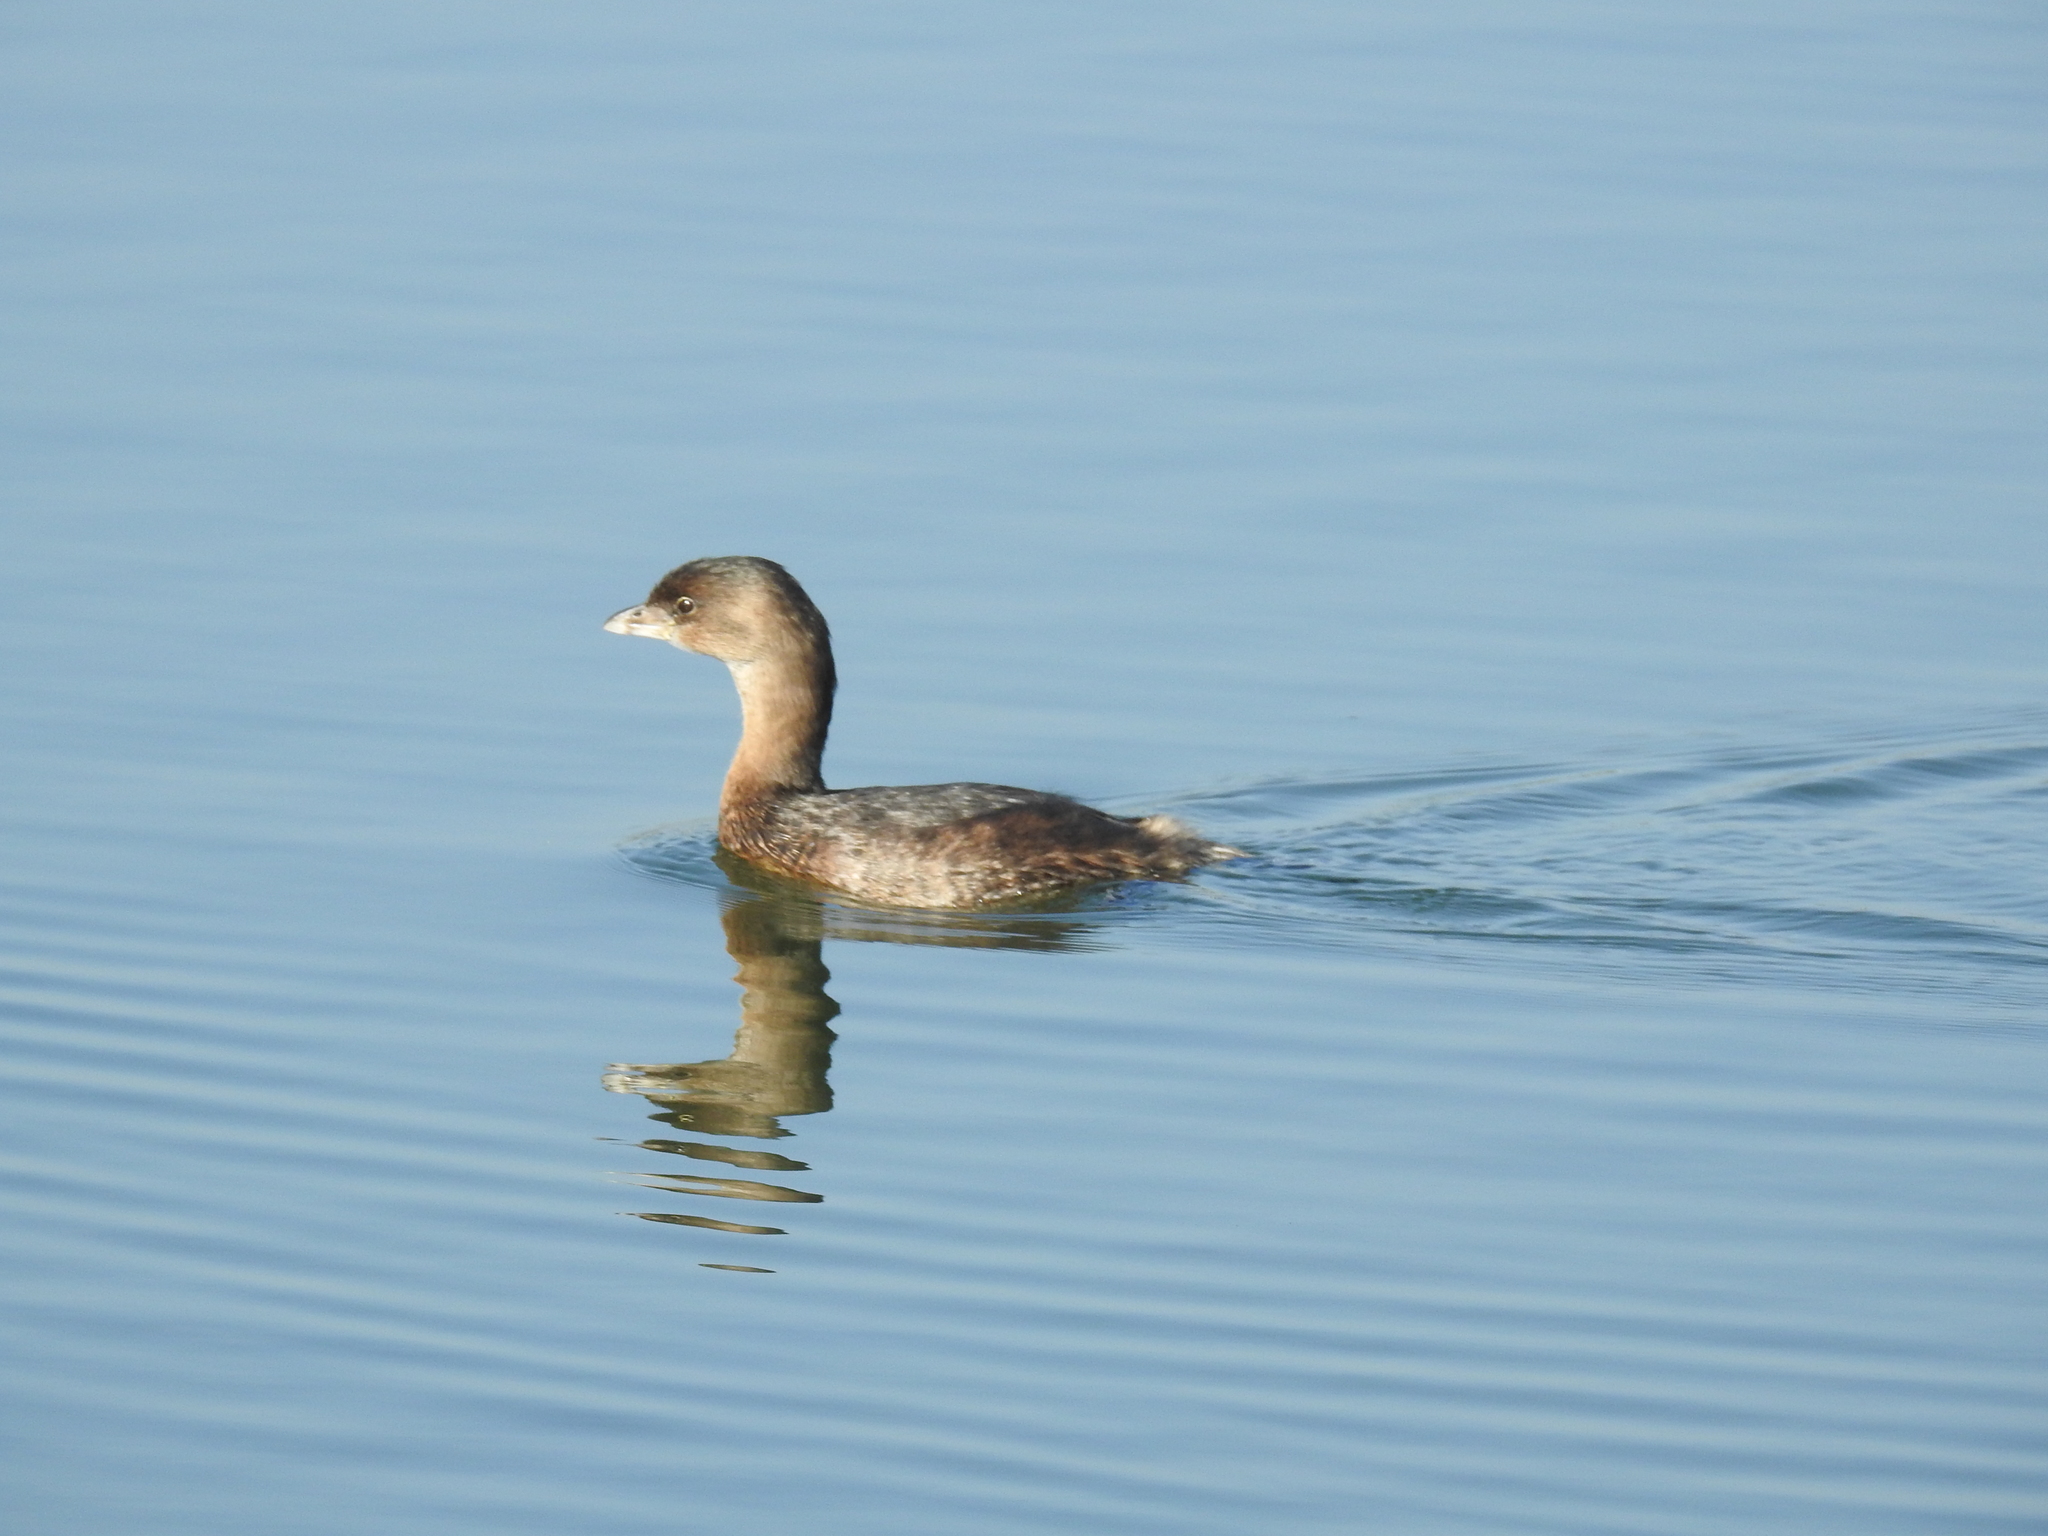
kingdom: Animalia
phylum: Chordata
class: Aves
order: Podicipediformes
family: Podicipedidae
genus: Podilymbus
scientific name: Podilymbus podiceps
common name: Pied-billed grebe
